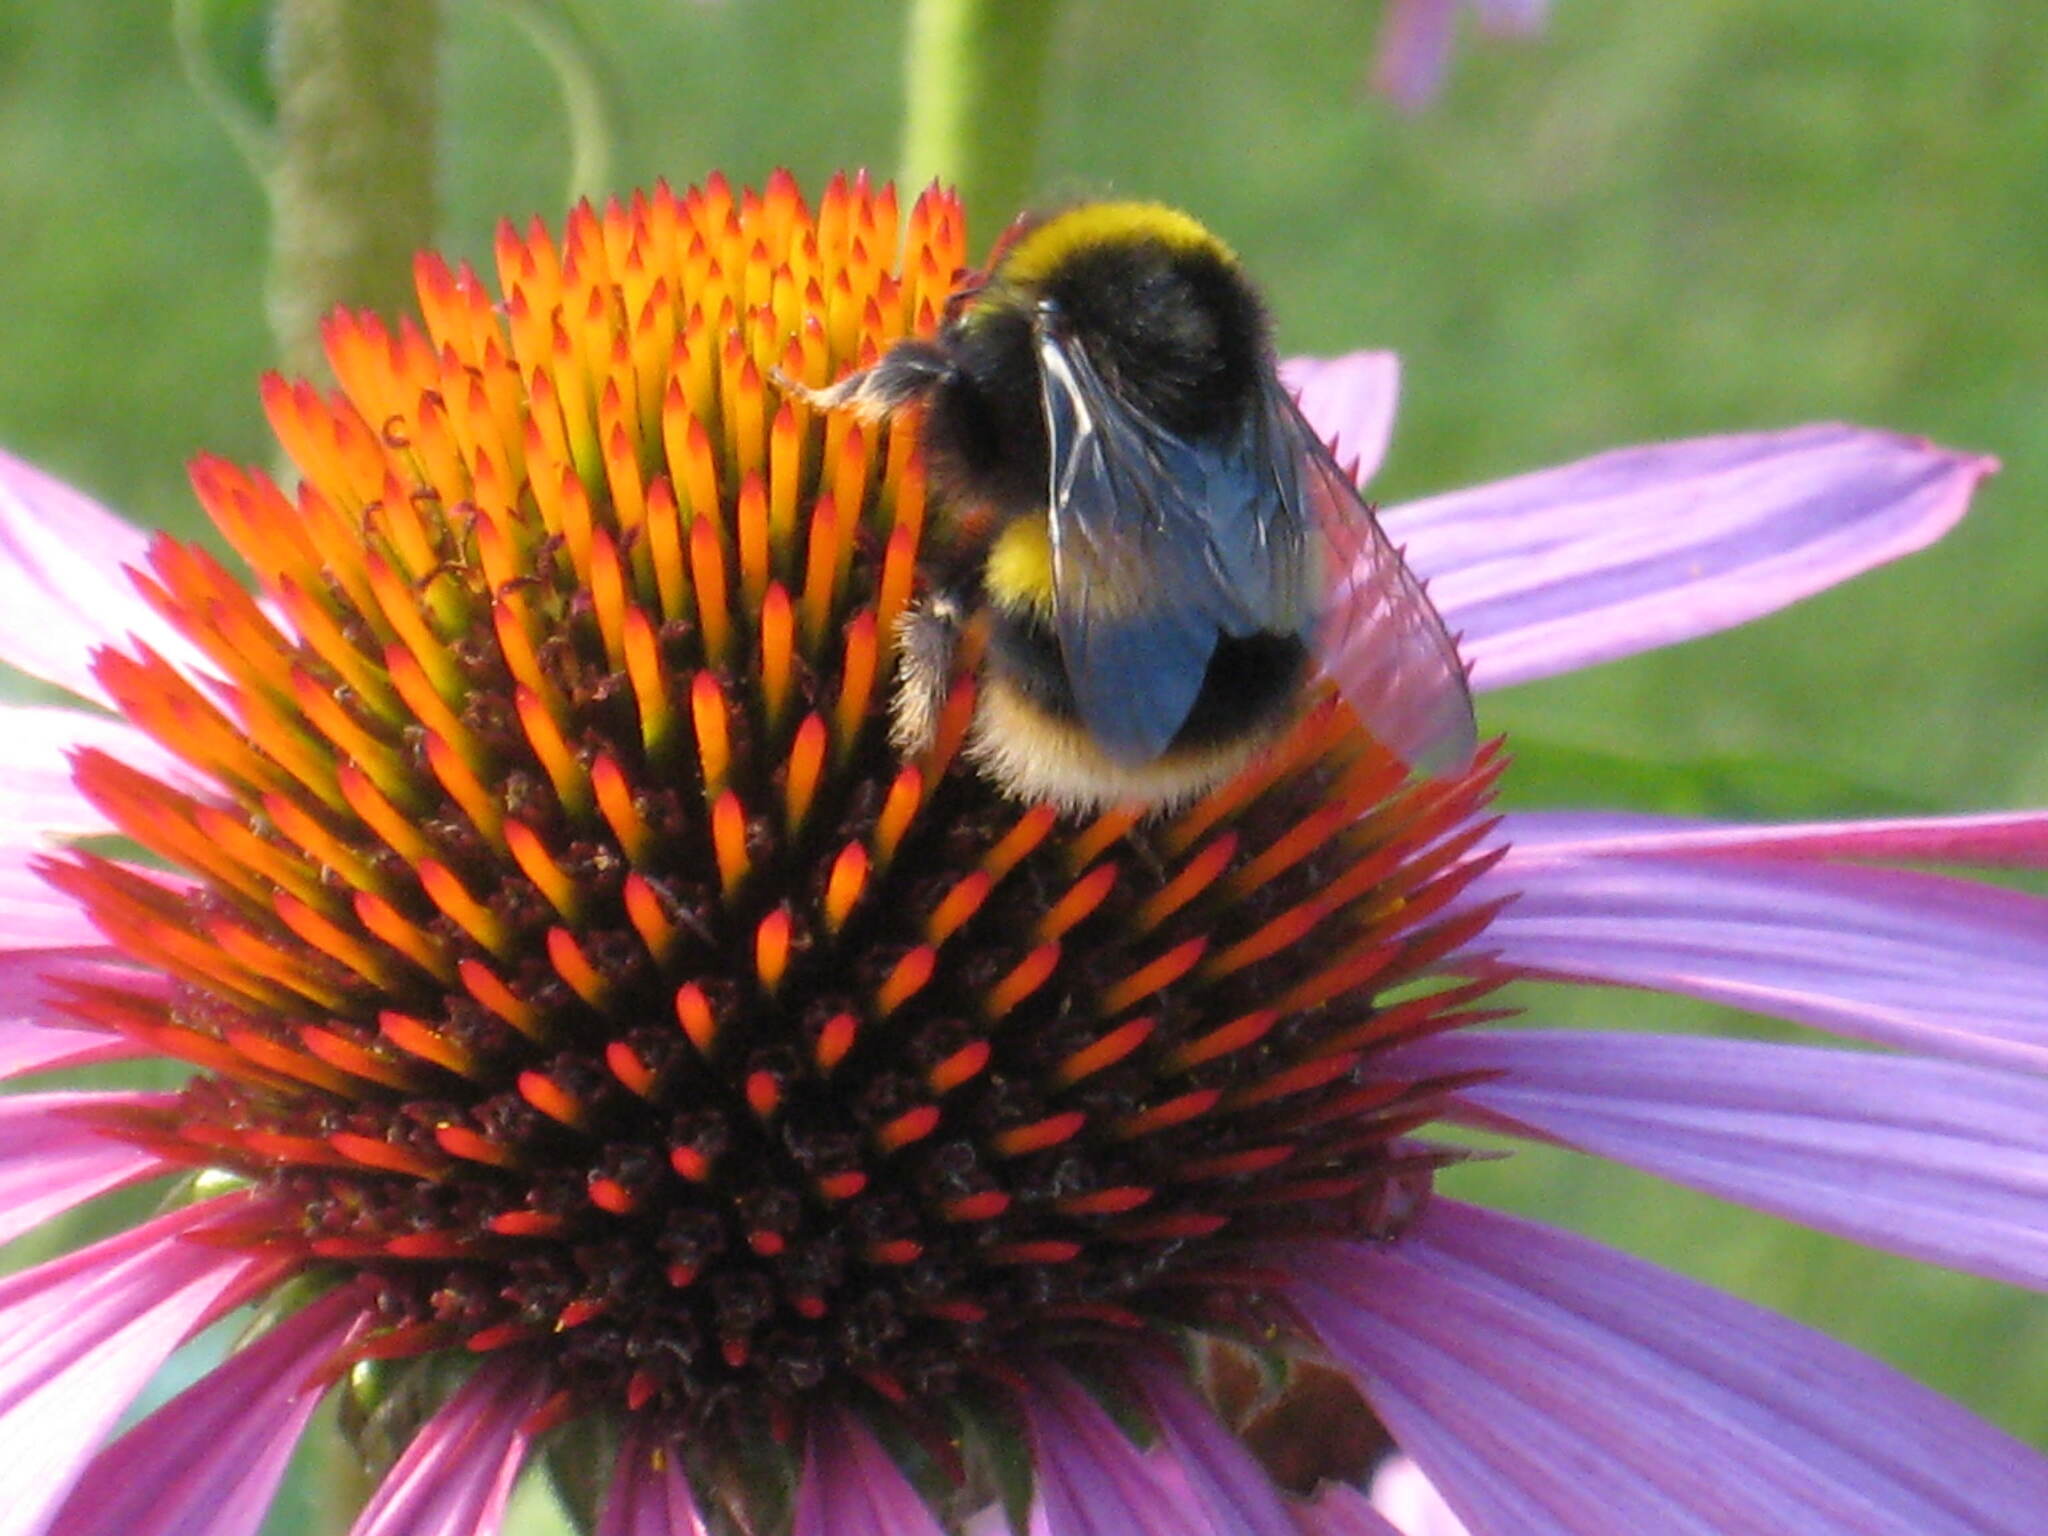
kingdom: Animalia
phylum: Arthropoda
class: Insecta
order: Hymenoptera
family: Apidae
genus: Bombus
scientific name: Bombus terrestris
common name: Buff-tailed bumblebee
